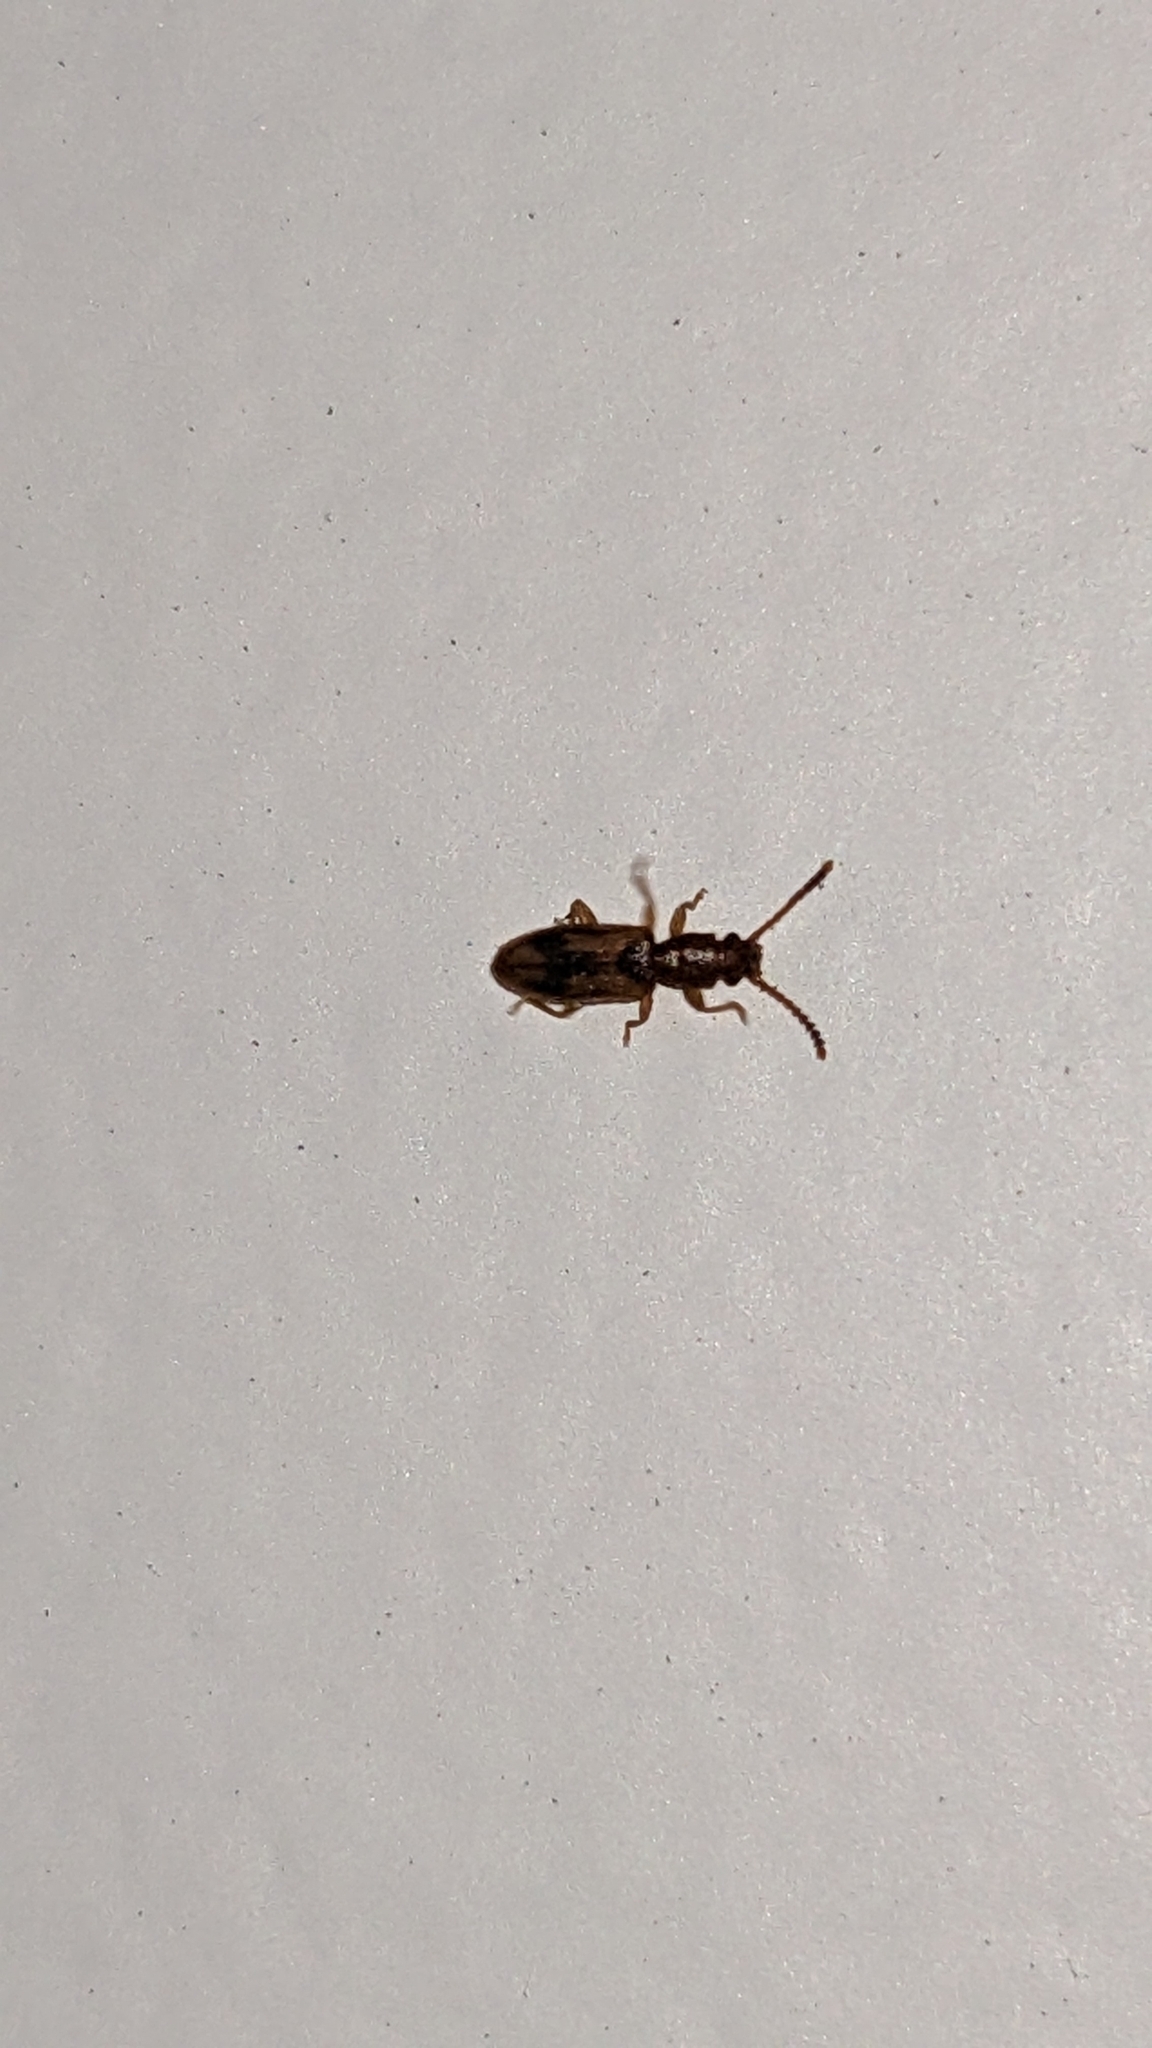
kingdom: Animalia
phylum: Arthropoda
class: Insecta
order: Coleoptera
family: Silvanidae
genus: Cryptamorpha
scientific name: Cryptamorpha desjardinsi
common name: Cryptamorpha
